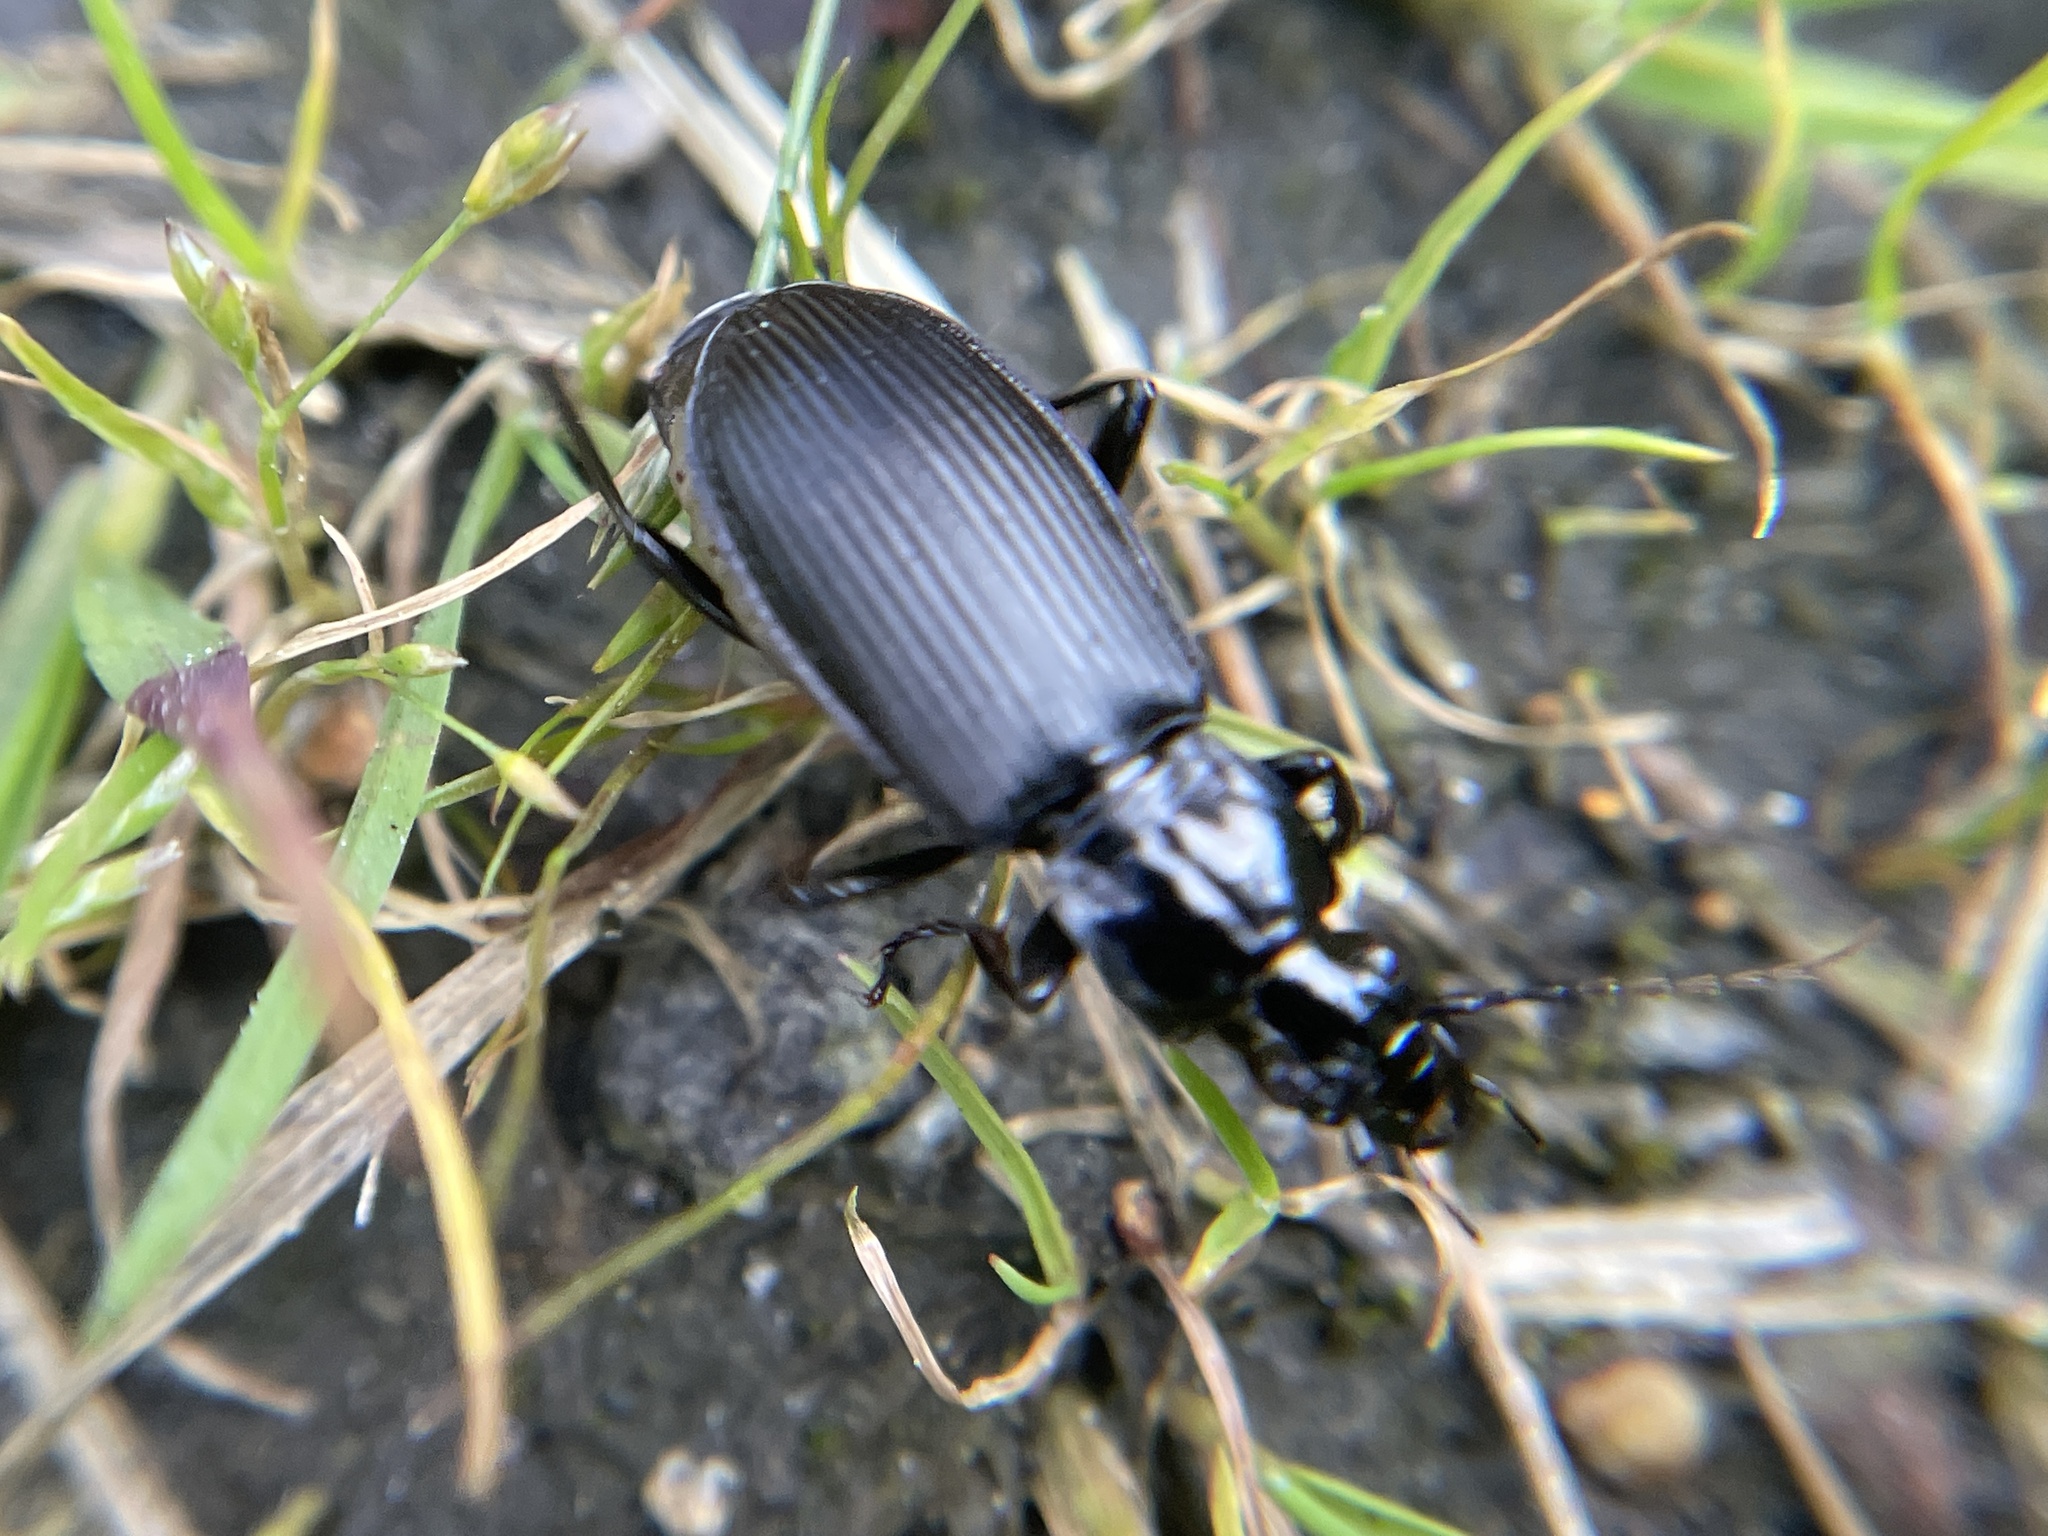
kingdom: Animalia
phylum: Arthropoda
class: Insecta
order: Coleoptera
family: Carabidae
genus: Pterostichus
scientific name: Pterostichus niger
